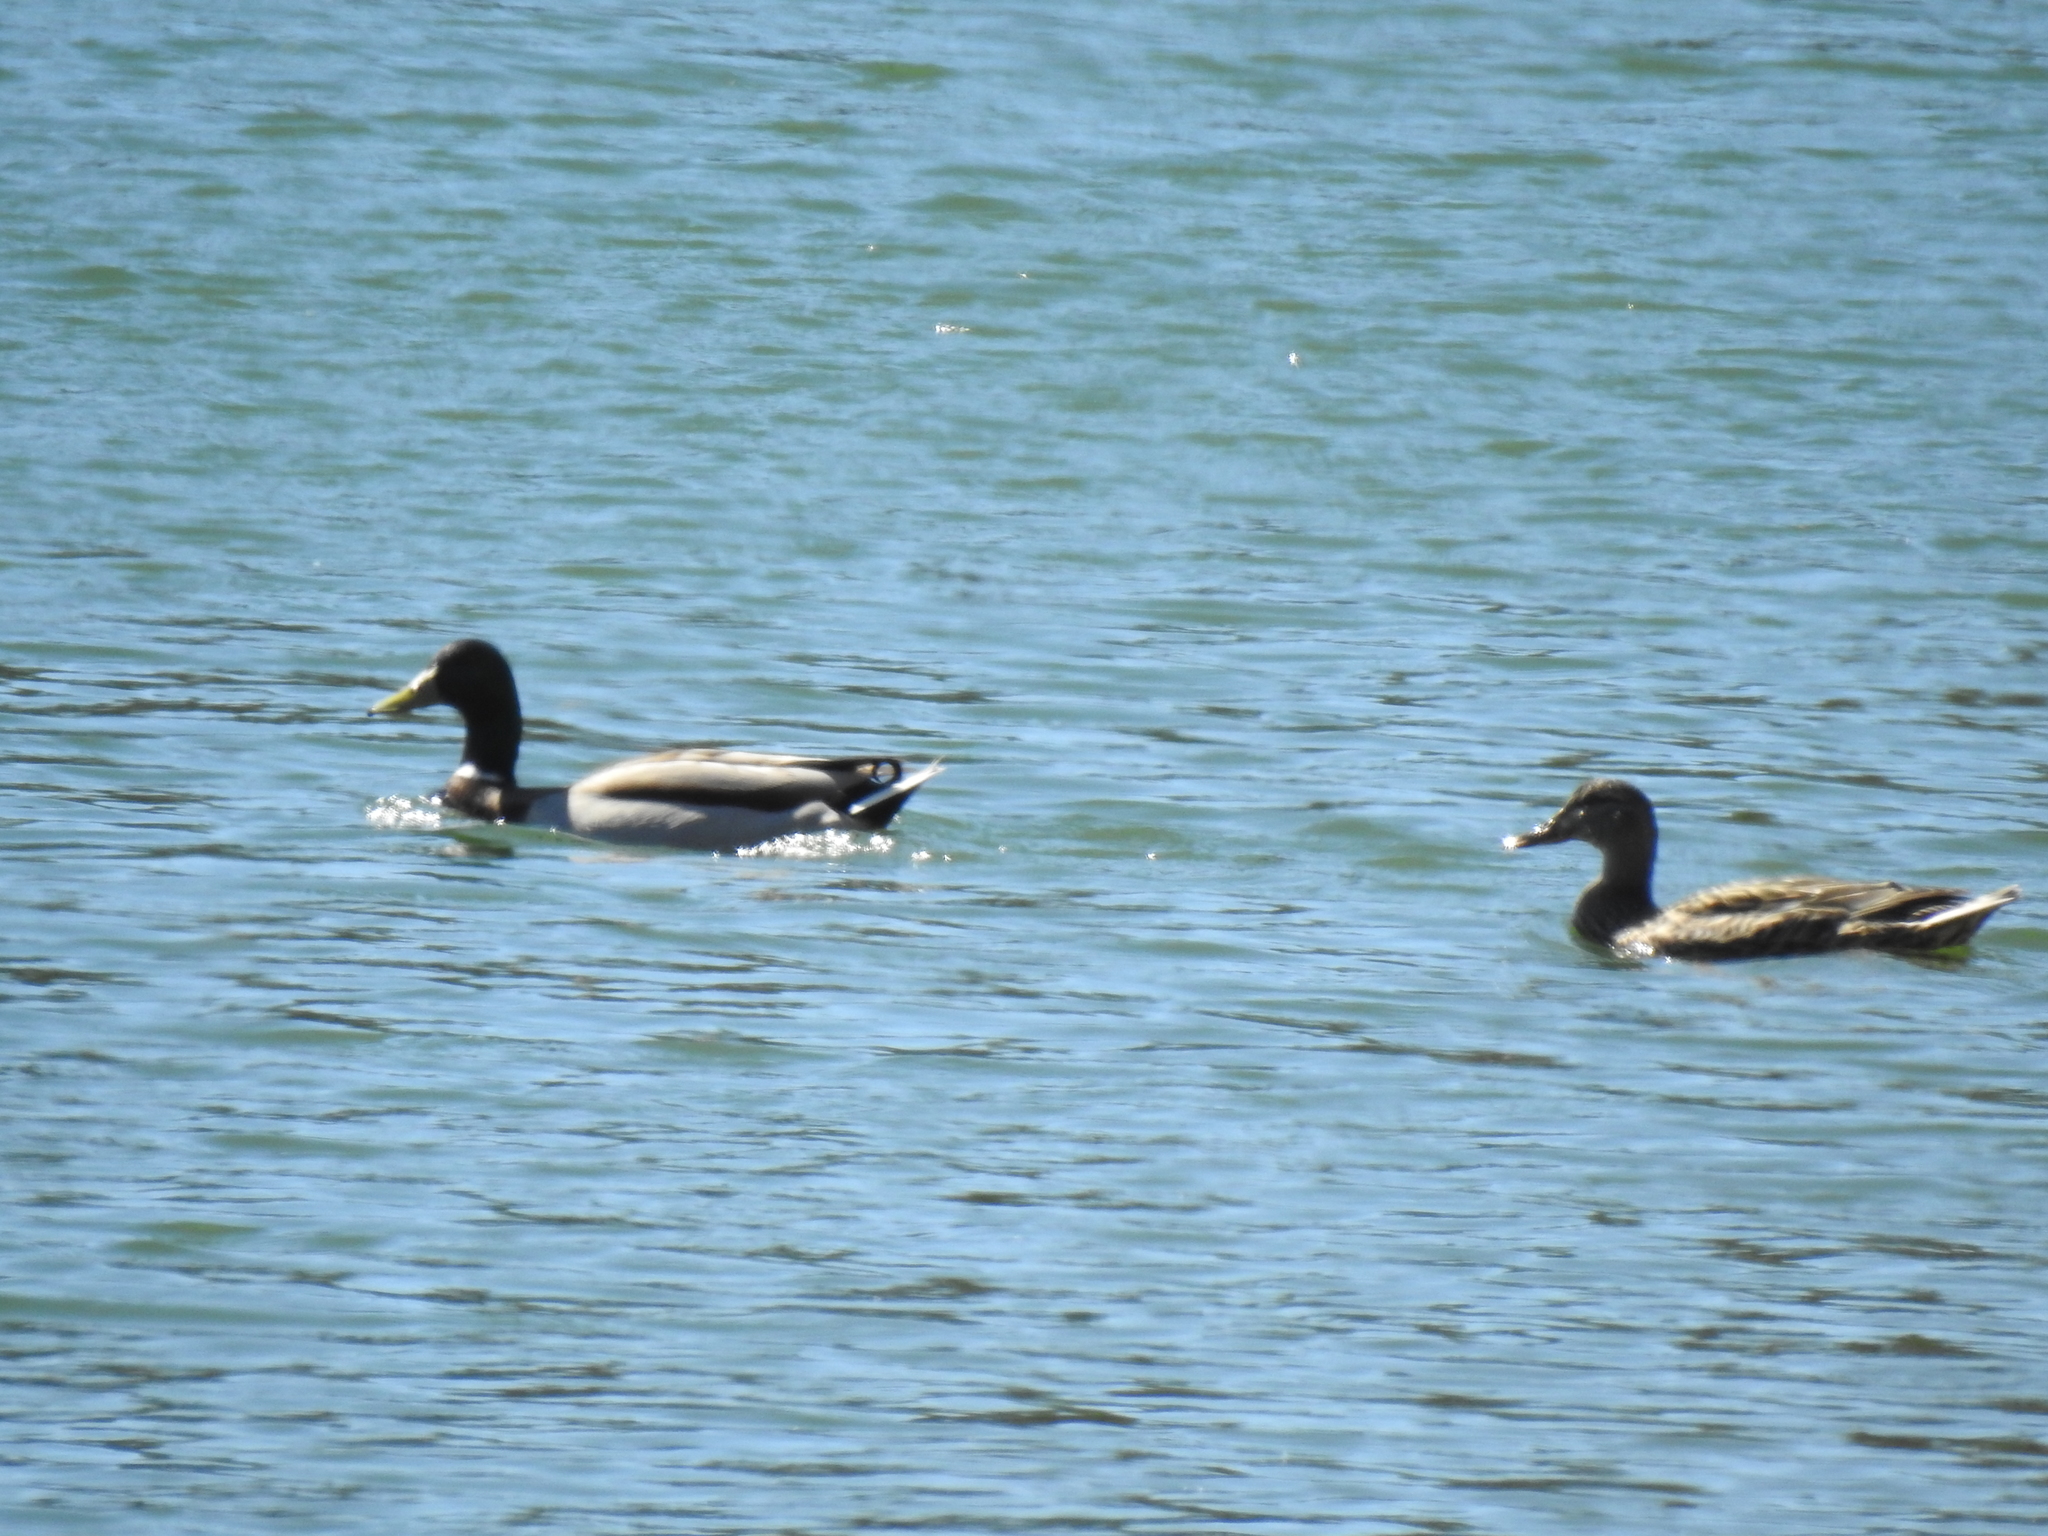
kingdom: Animalia
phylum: Chordata
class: Aves
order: Anseriformes
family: Anatidae
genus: Anas
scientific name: Anas platyrhynchos
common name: Mallard
